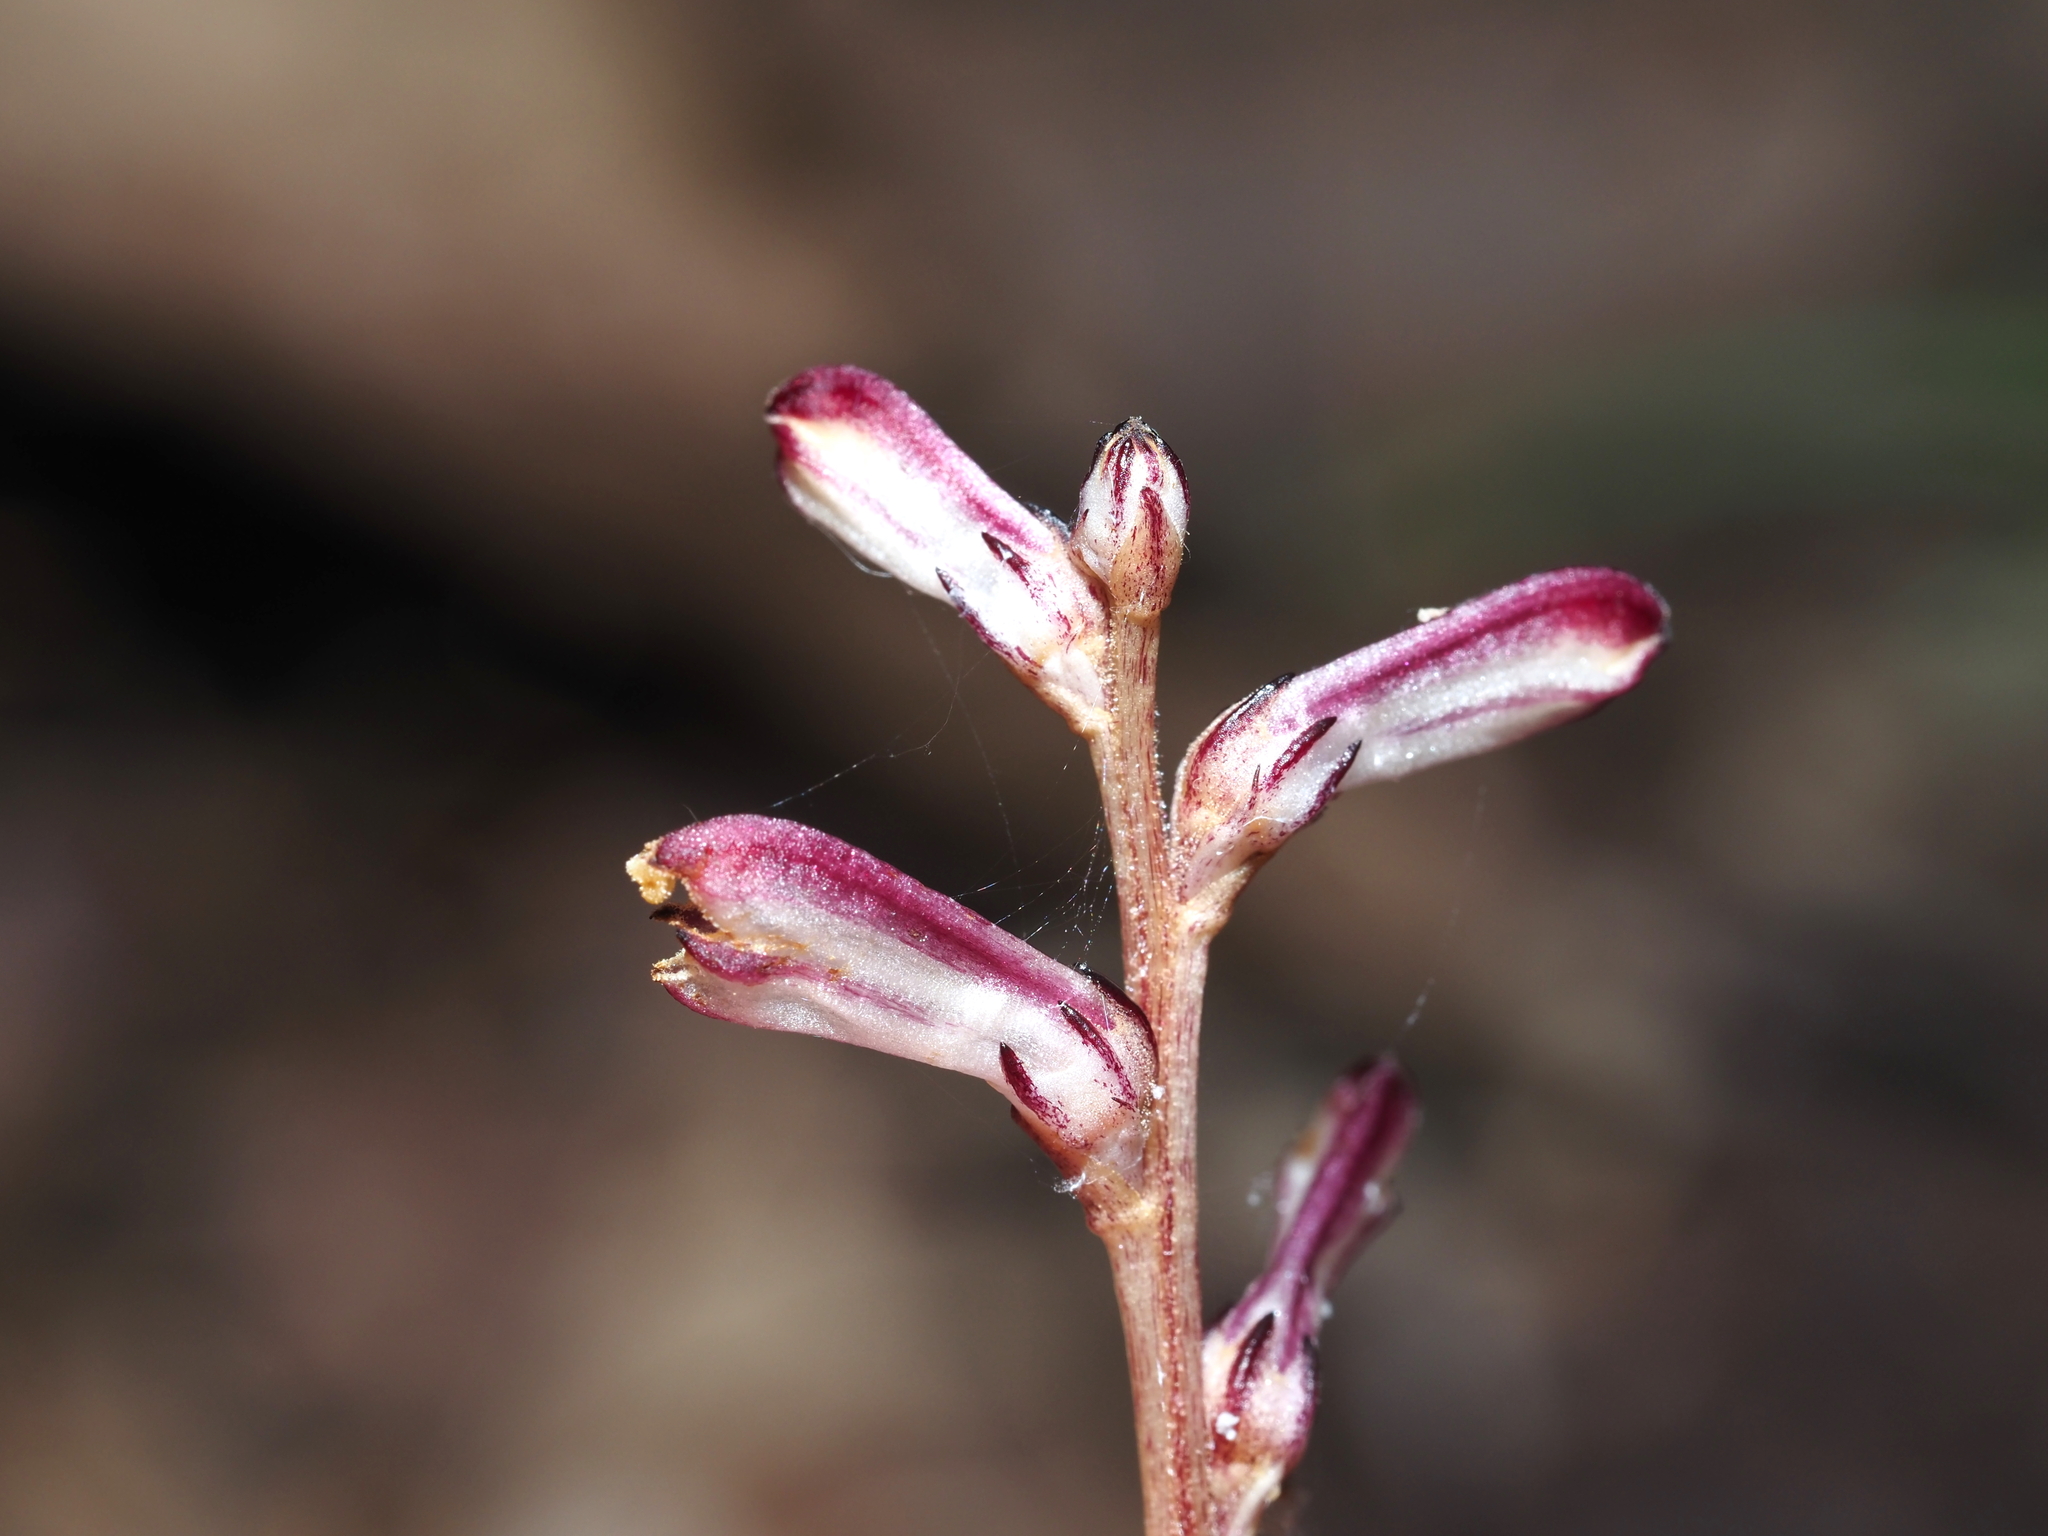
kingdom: Plantae
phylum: Tracheophyta
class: Magnoliopsida
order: Lamiales
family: Orobanchaceae
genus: Epifagus
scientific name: Epifagus virginiana
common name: Beechdrops
